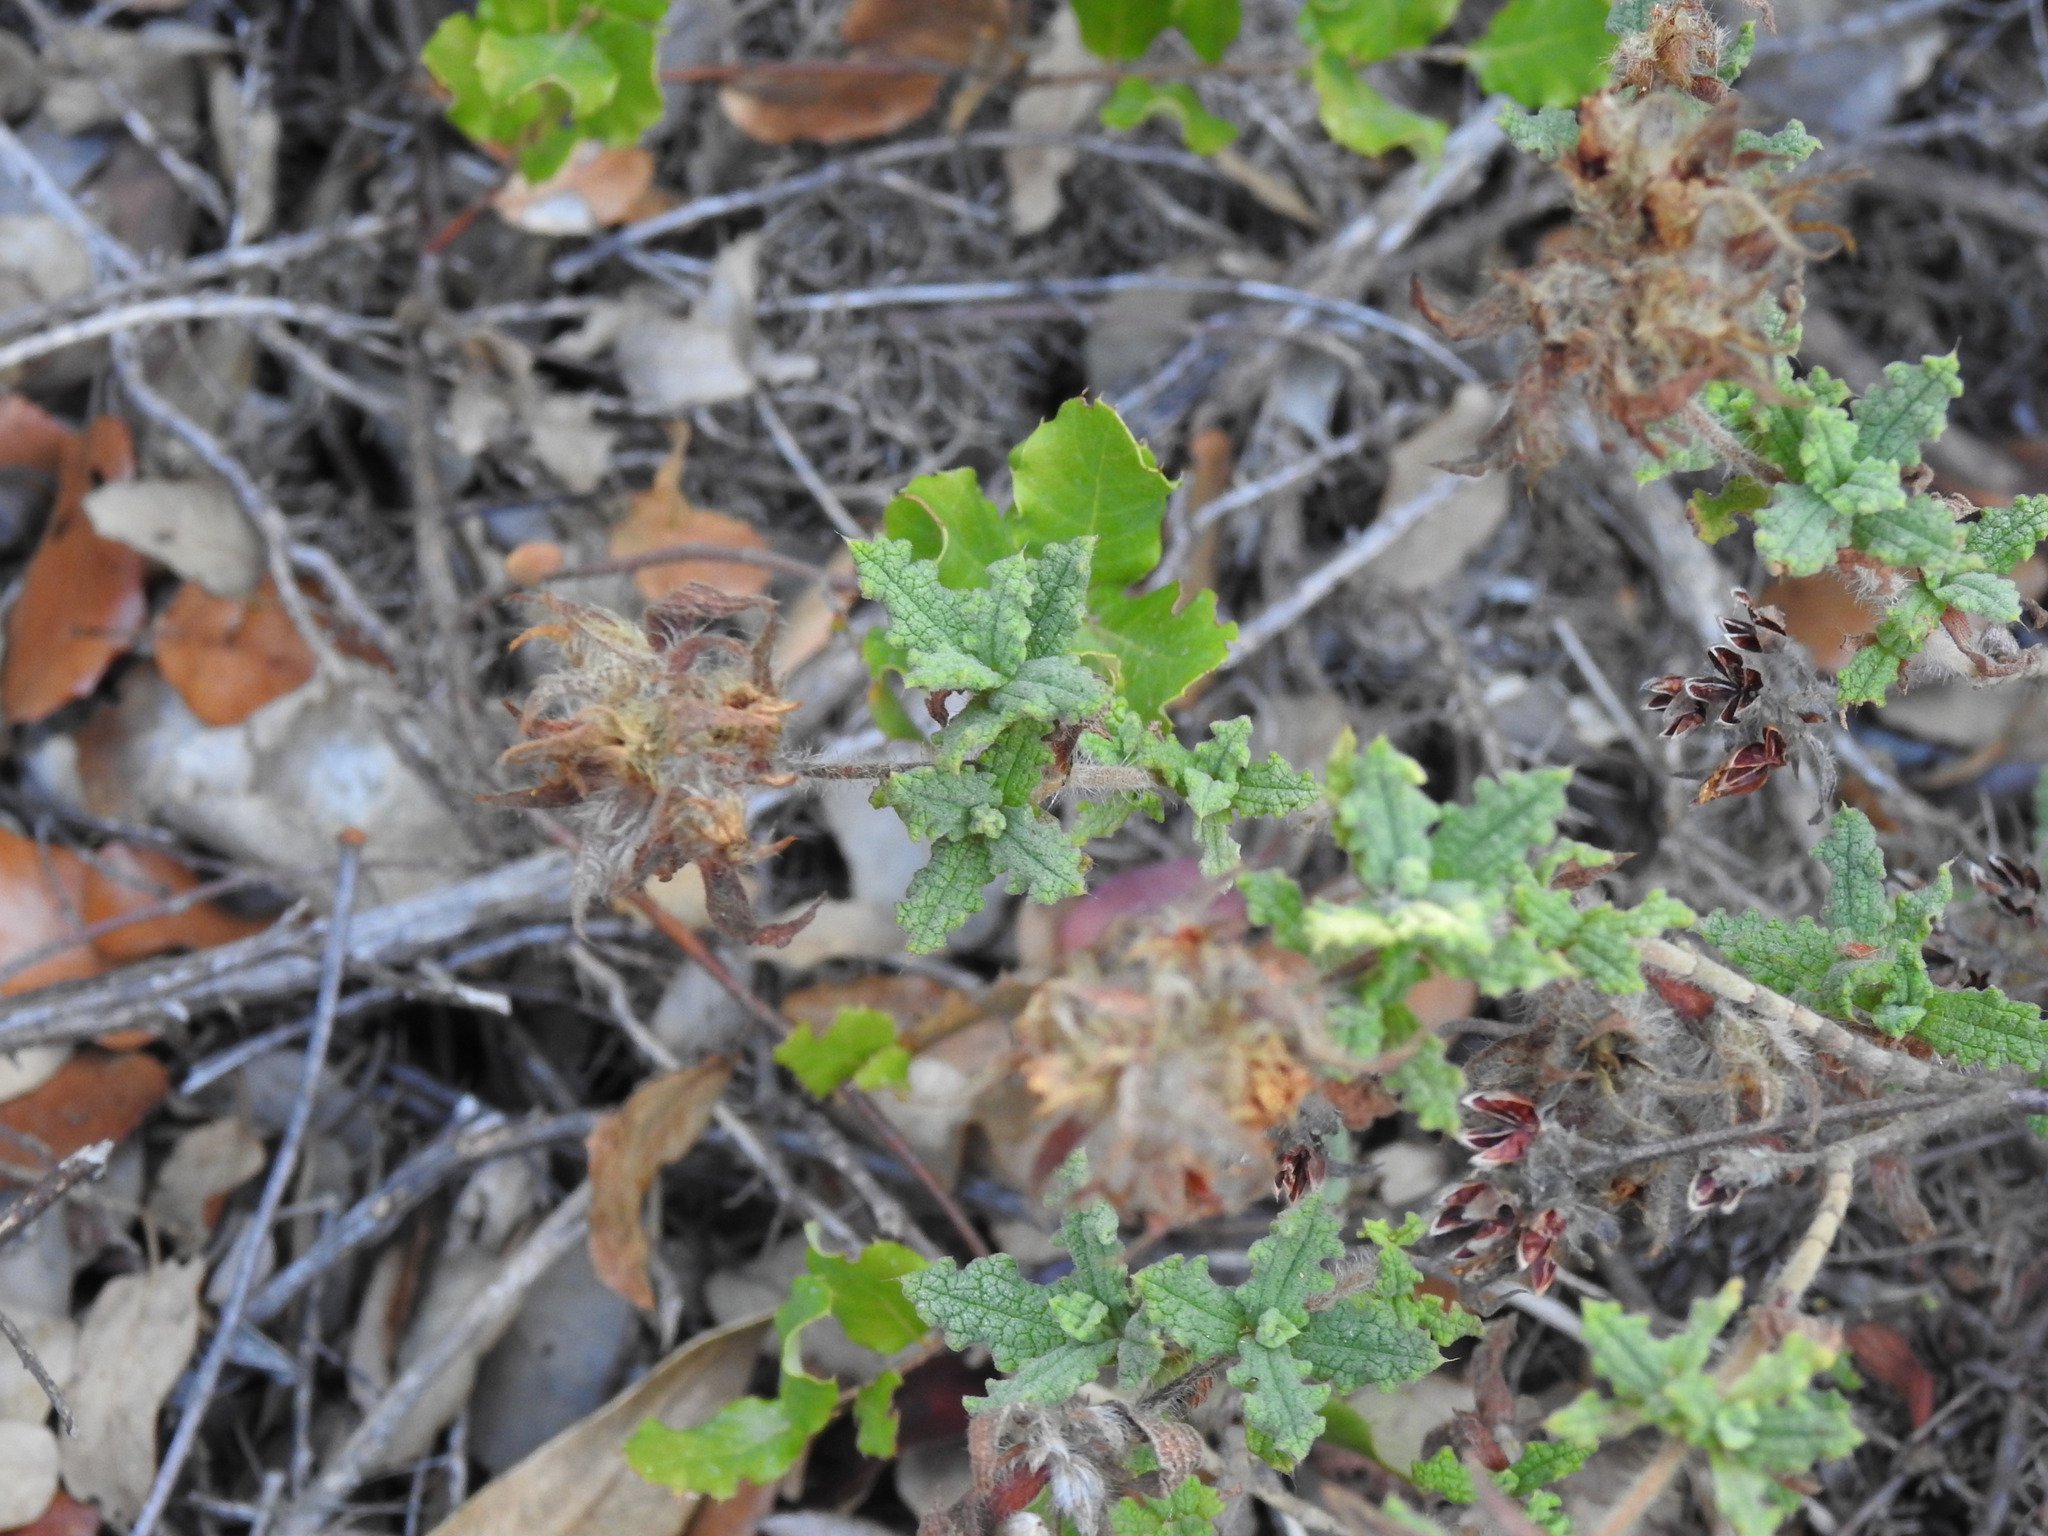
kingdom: Plantae
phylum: Tracheophyta
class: Magnoliopsida
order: Malvales
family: Cistaceae
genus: Cistus
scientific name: Cistus crispus
